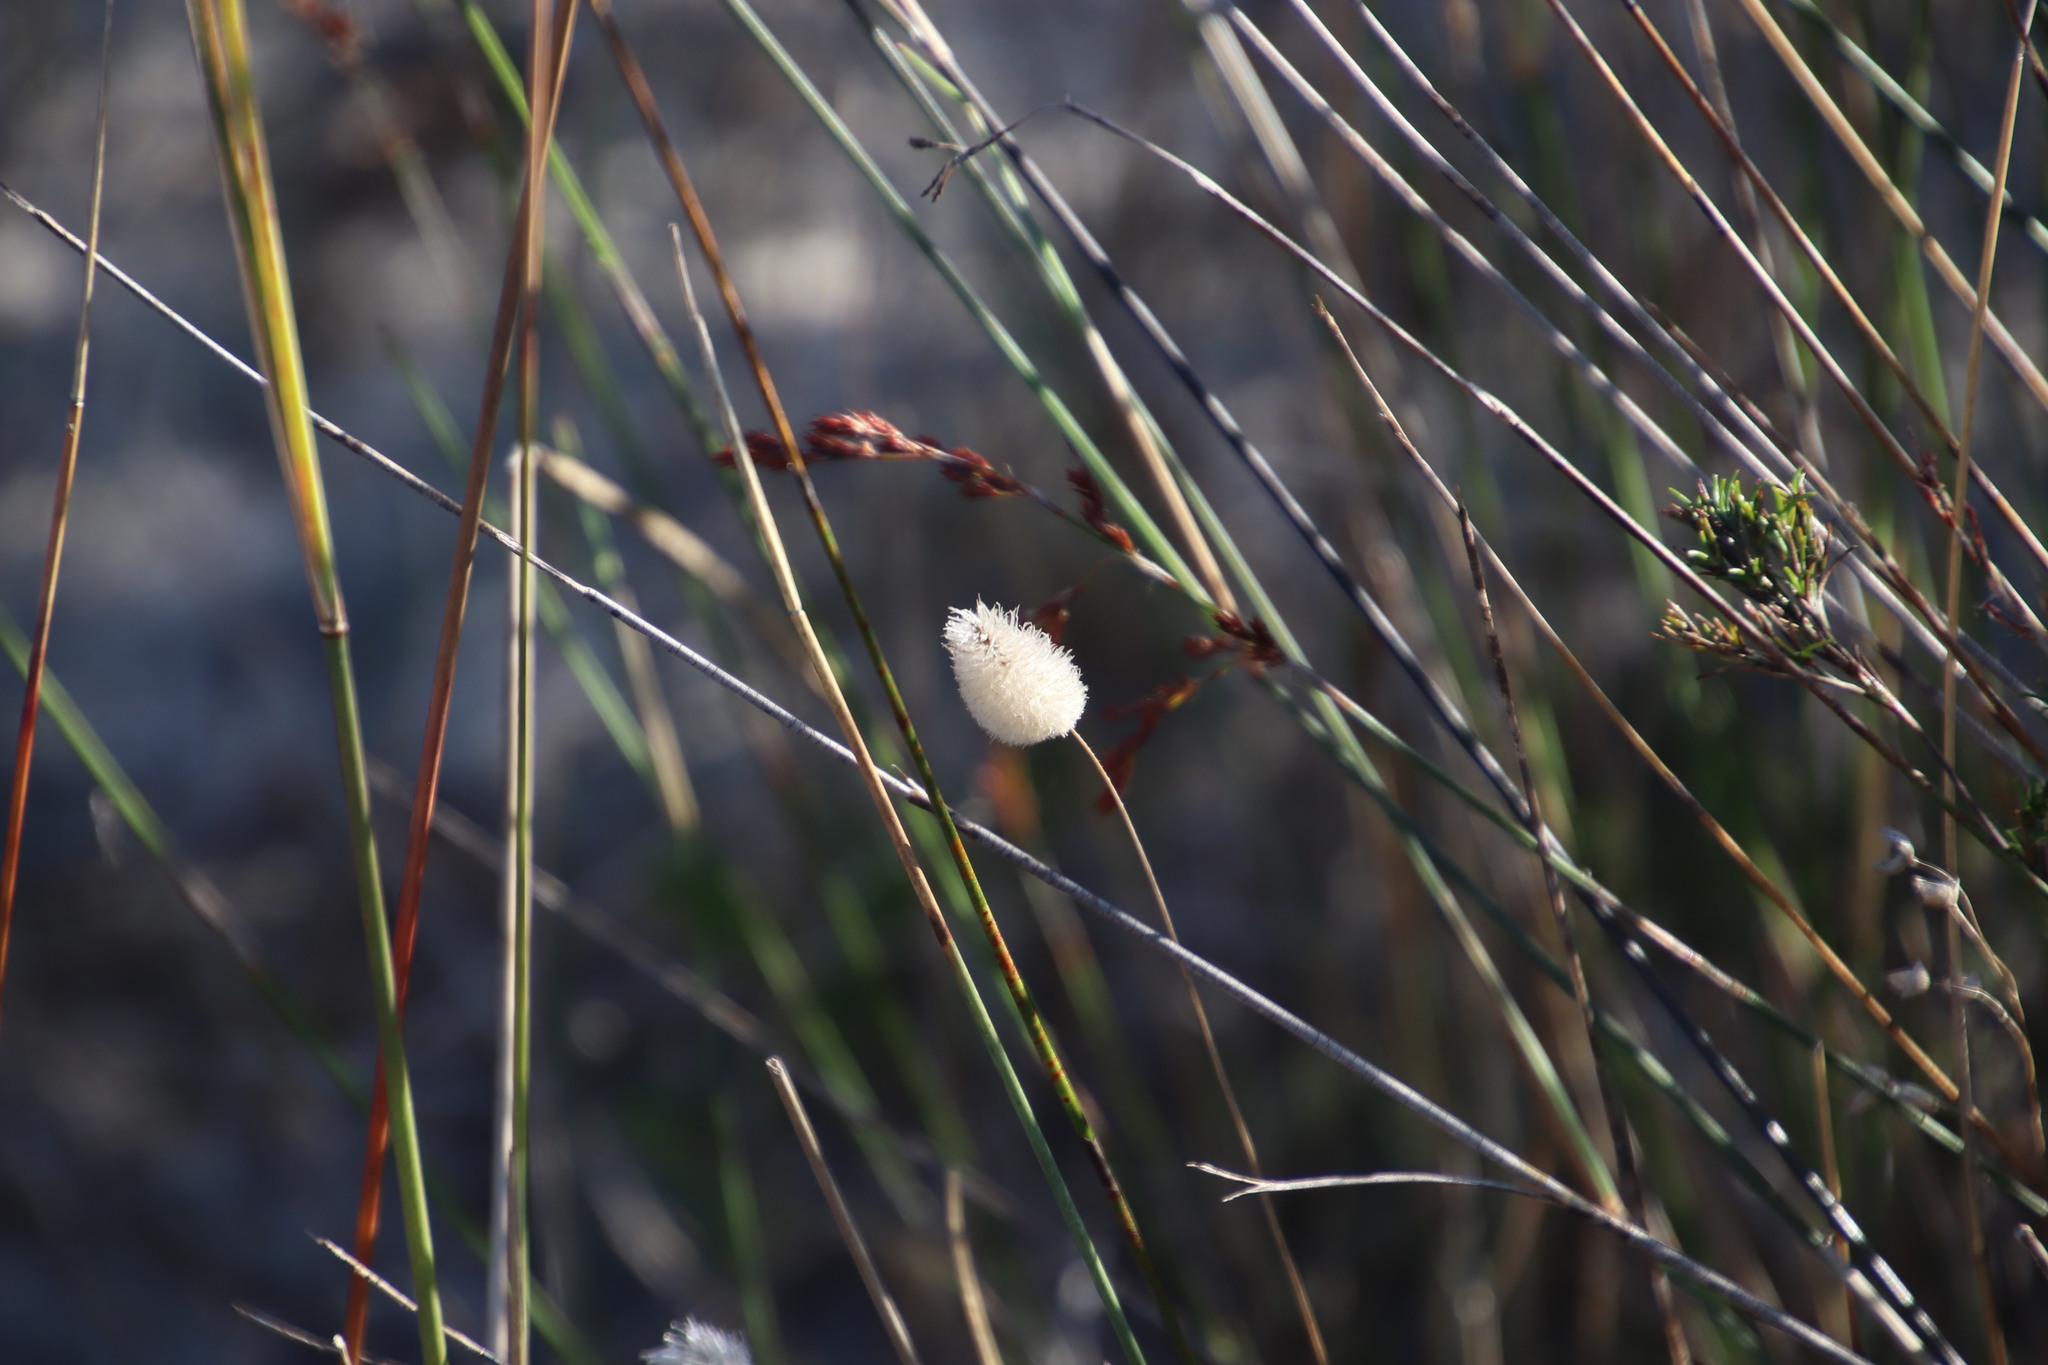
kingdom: Plantae
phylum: Tracheophyta
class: Liliopsida
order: Poales
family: Poaceae
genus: Lagurus
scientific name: Lagurus ovatus
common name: Hare's-tail
